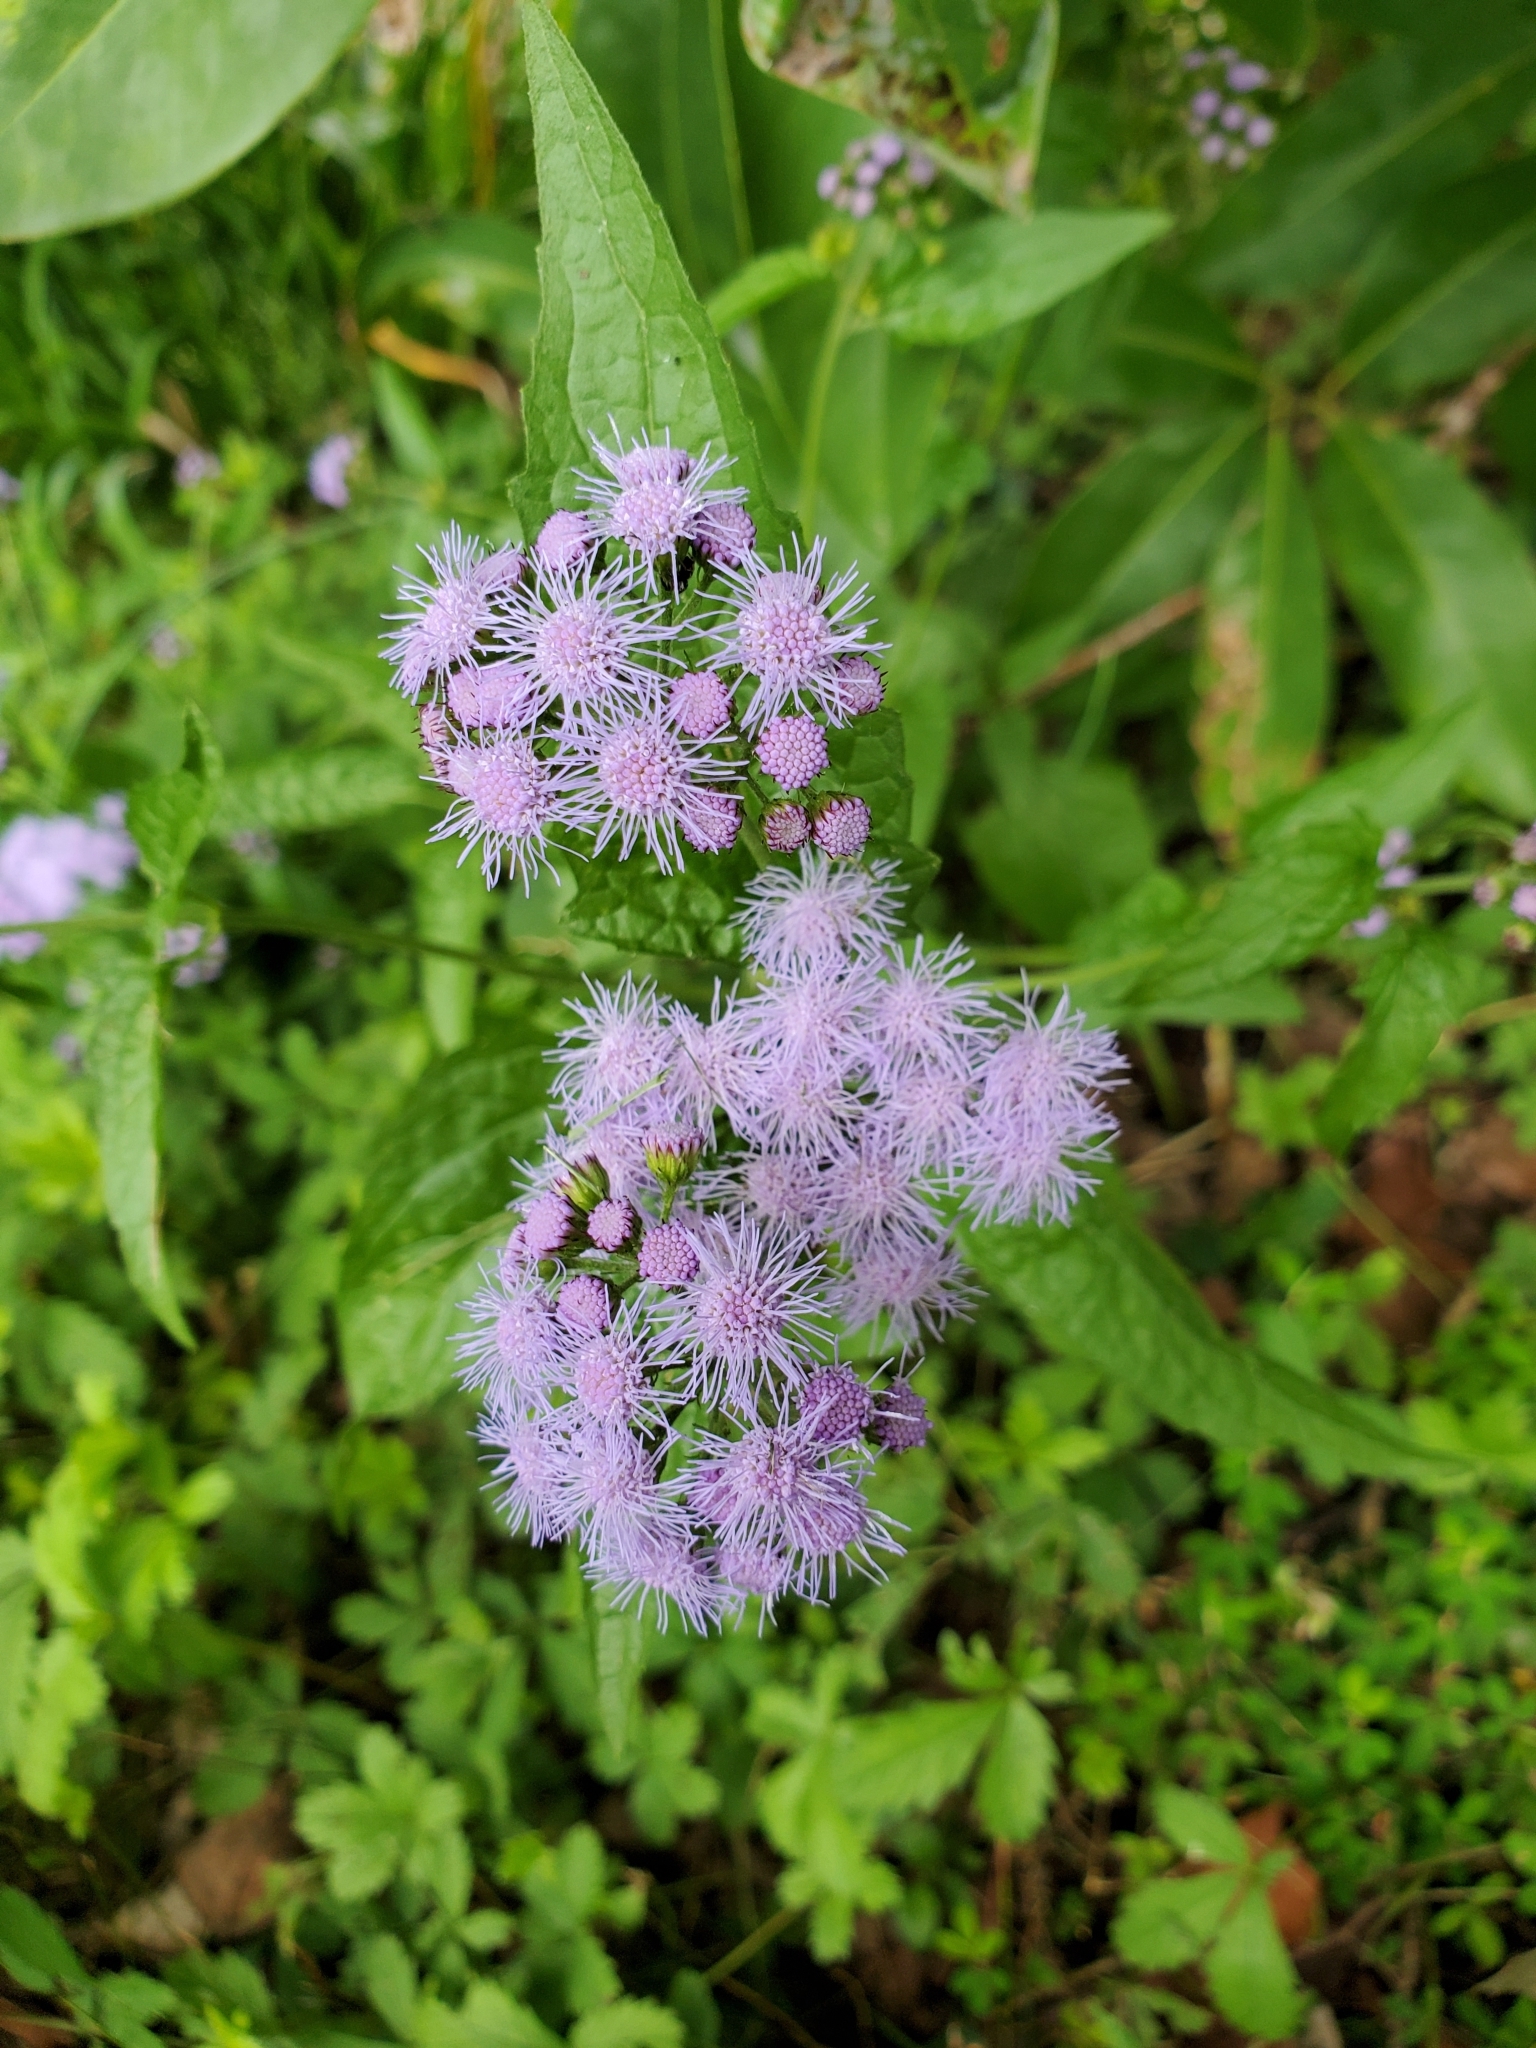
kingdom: Plantae
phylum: Tracheophyta
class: Magnoliopsida
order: Asterales
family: Asteraceae
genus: Conoclinium
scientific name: Conoclinium coelestinum
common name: Blue mistflower
